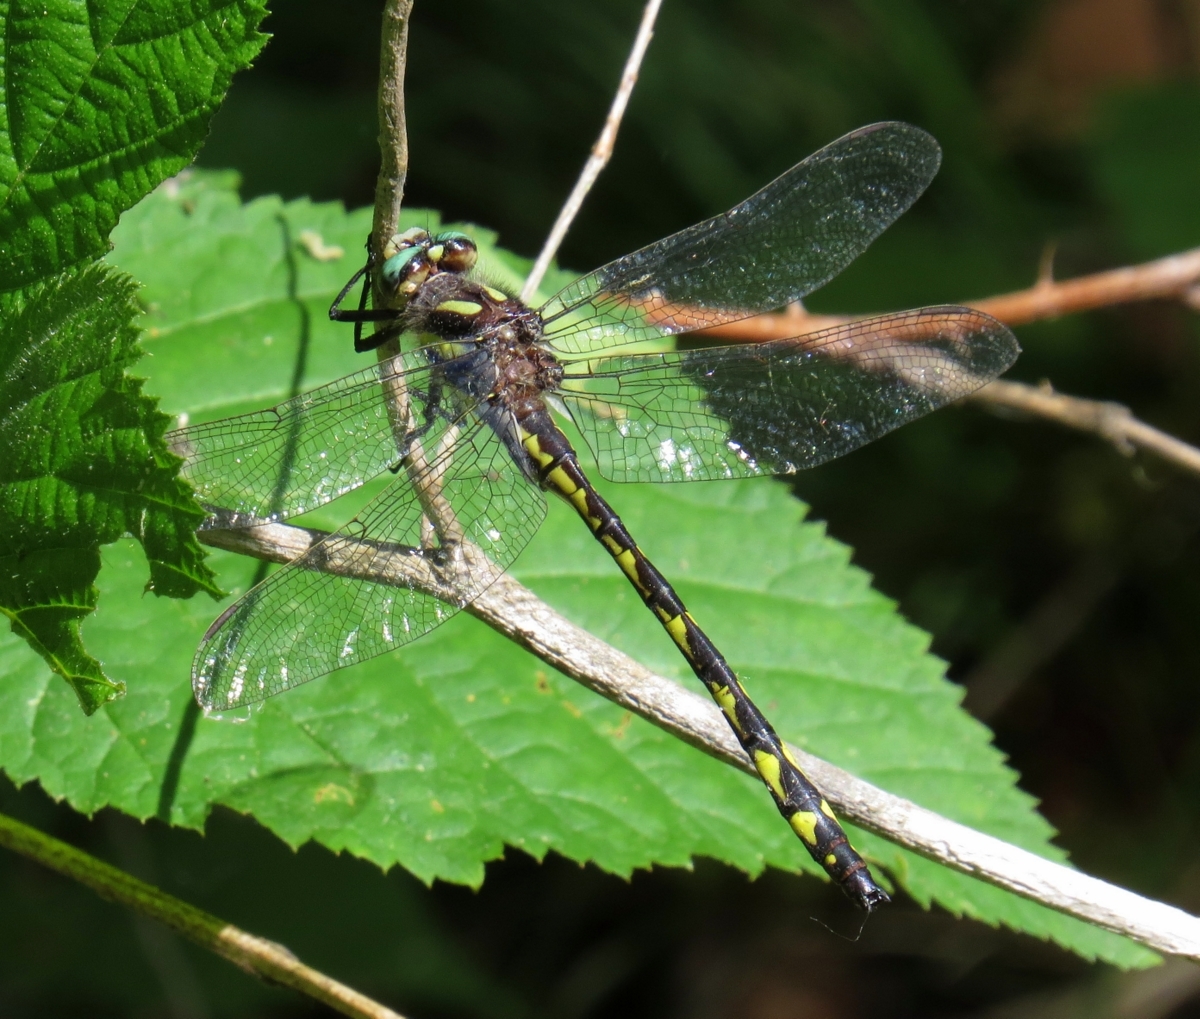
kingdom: Animalia
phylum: Arthropoda
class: Insecta
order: Odonata
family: Cordulegastridae
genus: Cordulegaster
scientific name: Cordulegaster diastatops
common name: Delta-spotted spiketail
